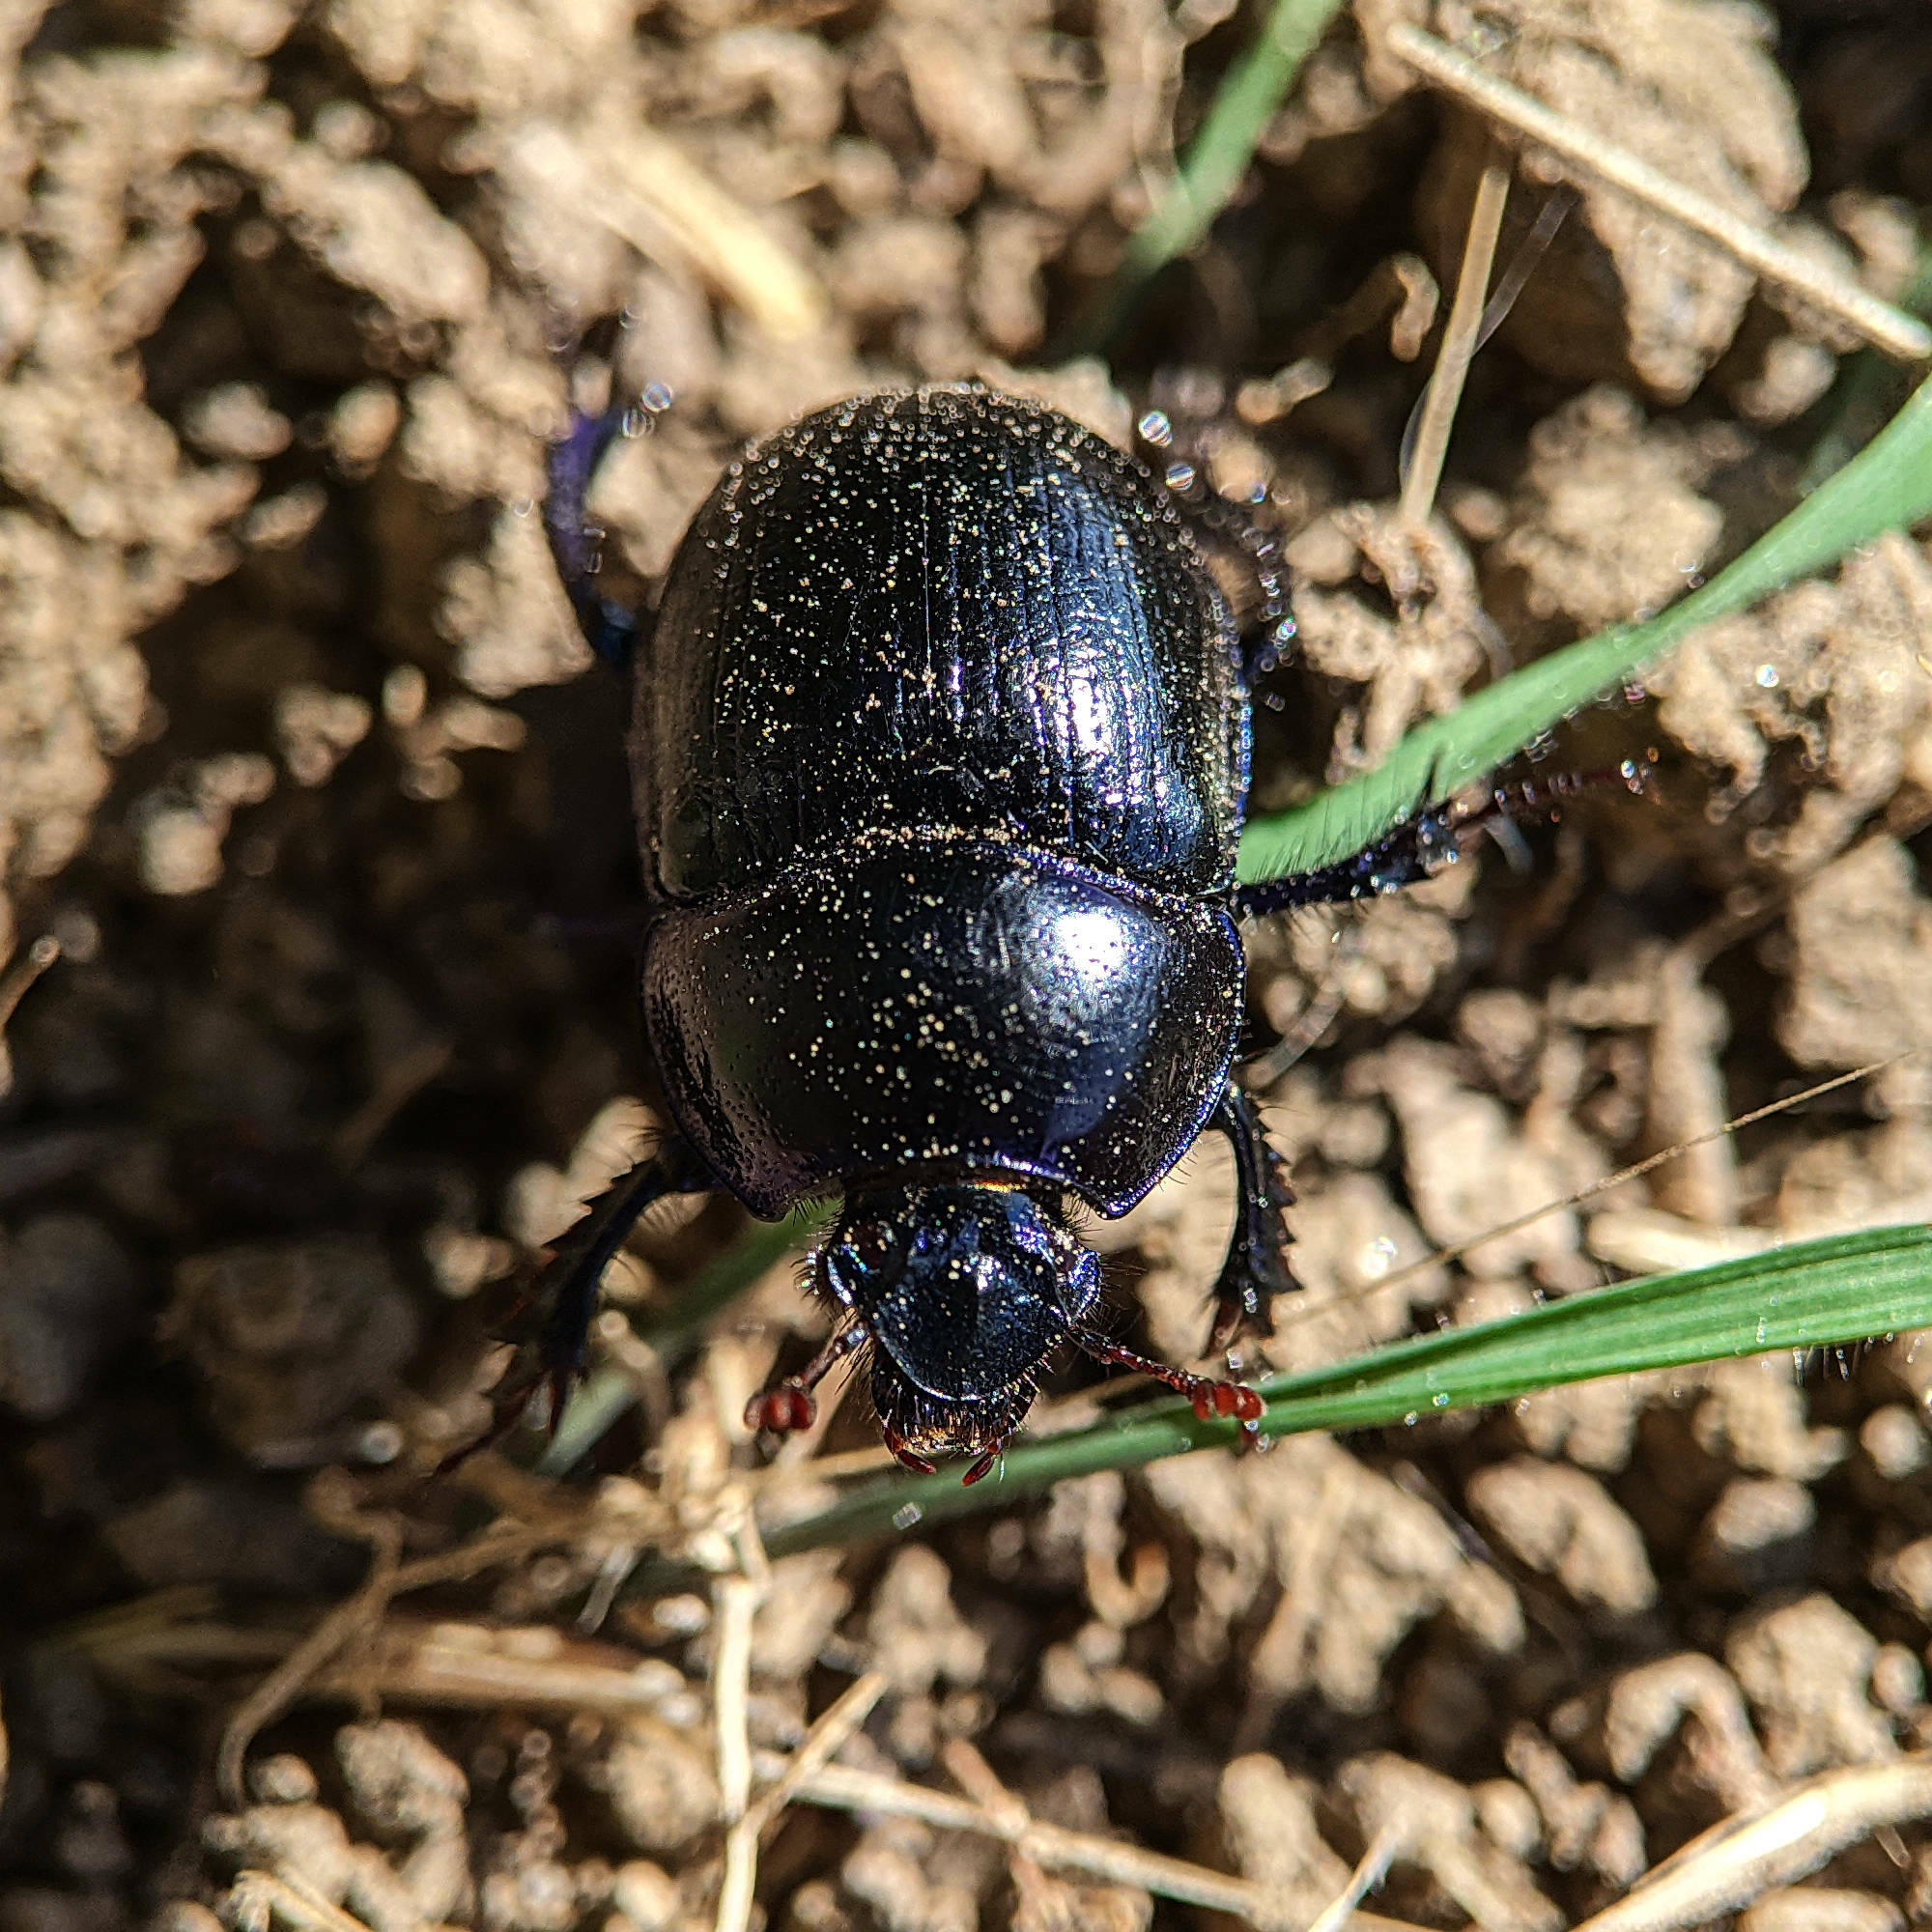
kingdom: Animalia
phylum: Arthropoda
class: Insecta
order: Coleoptera
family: Geotrupidae
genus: Anoplotrupes
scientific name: Anoplotrupes stercorosus
